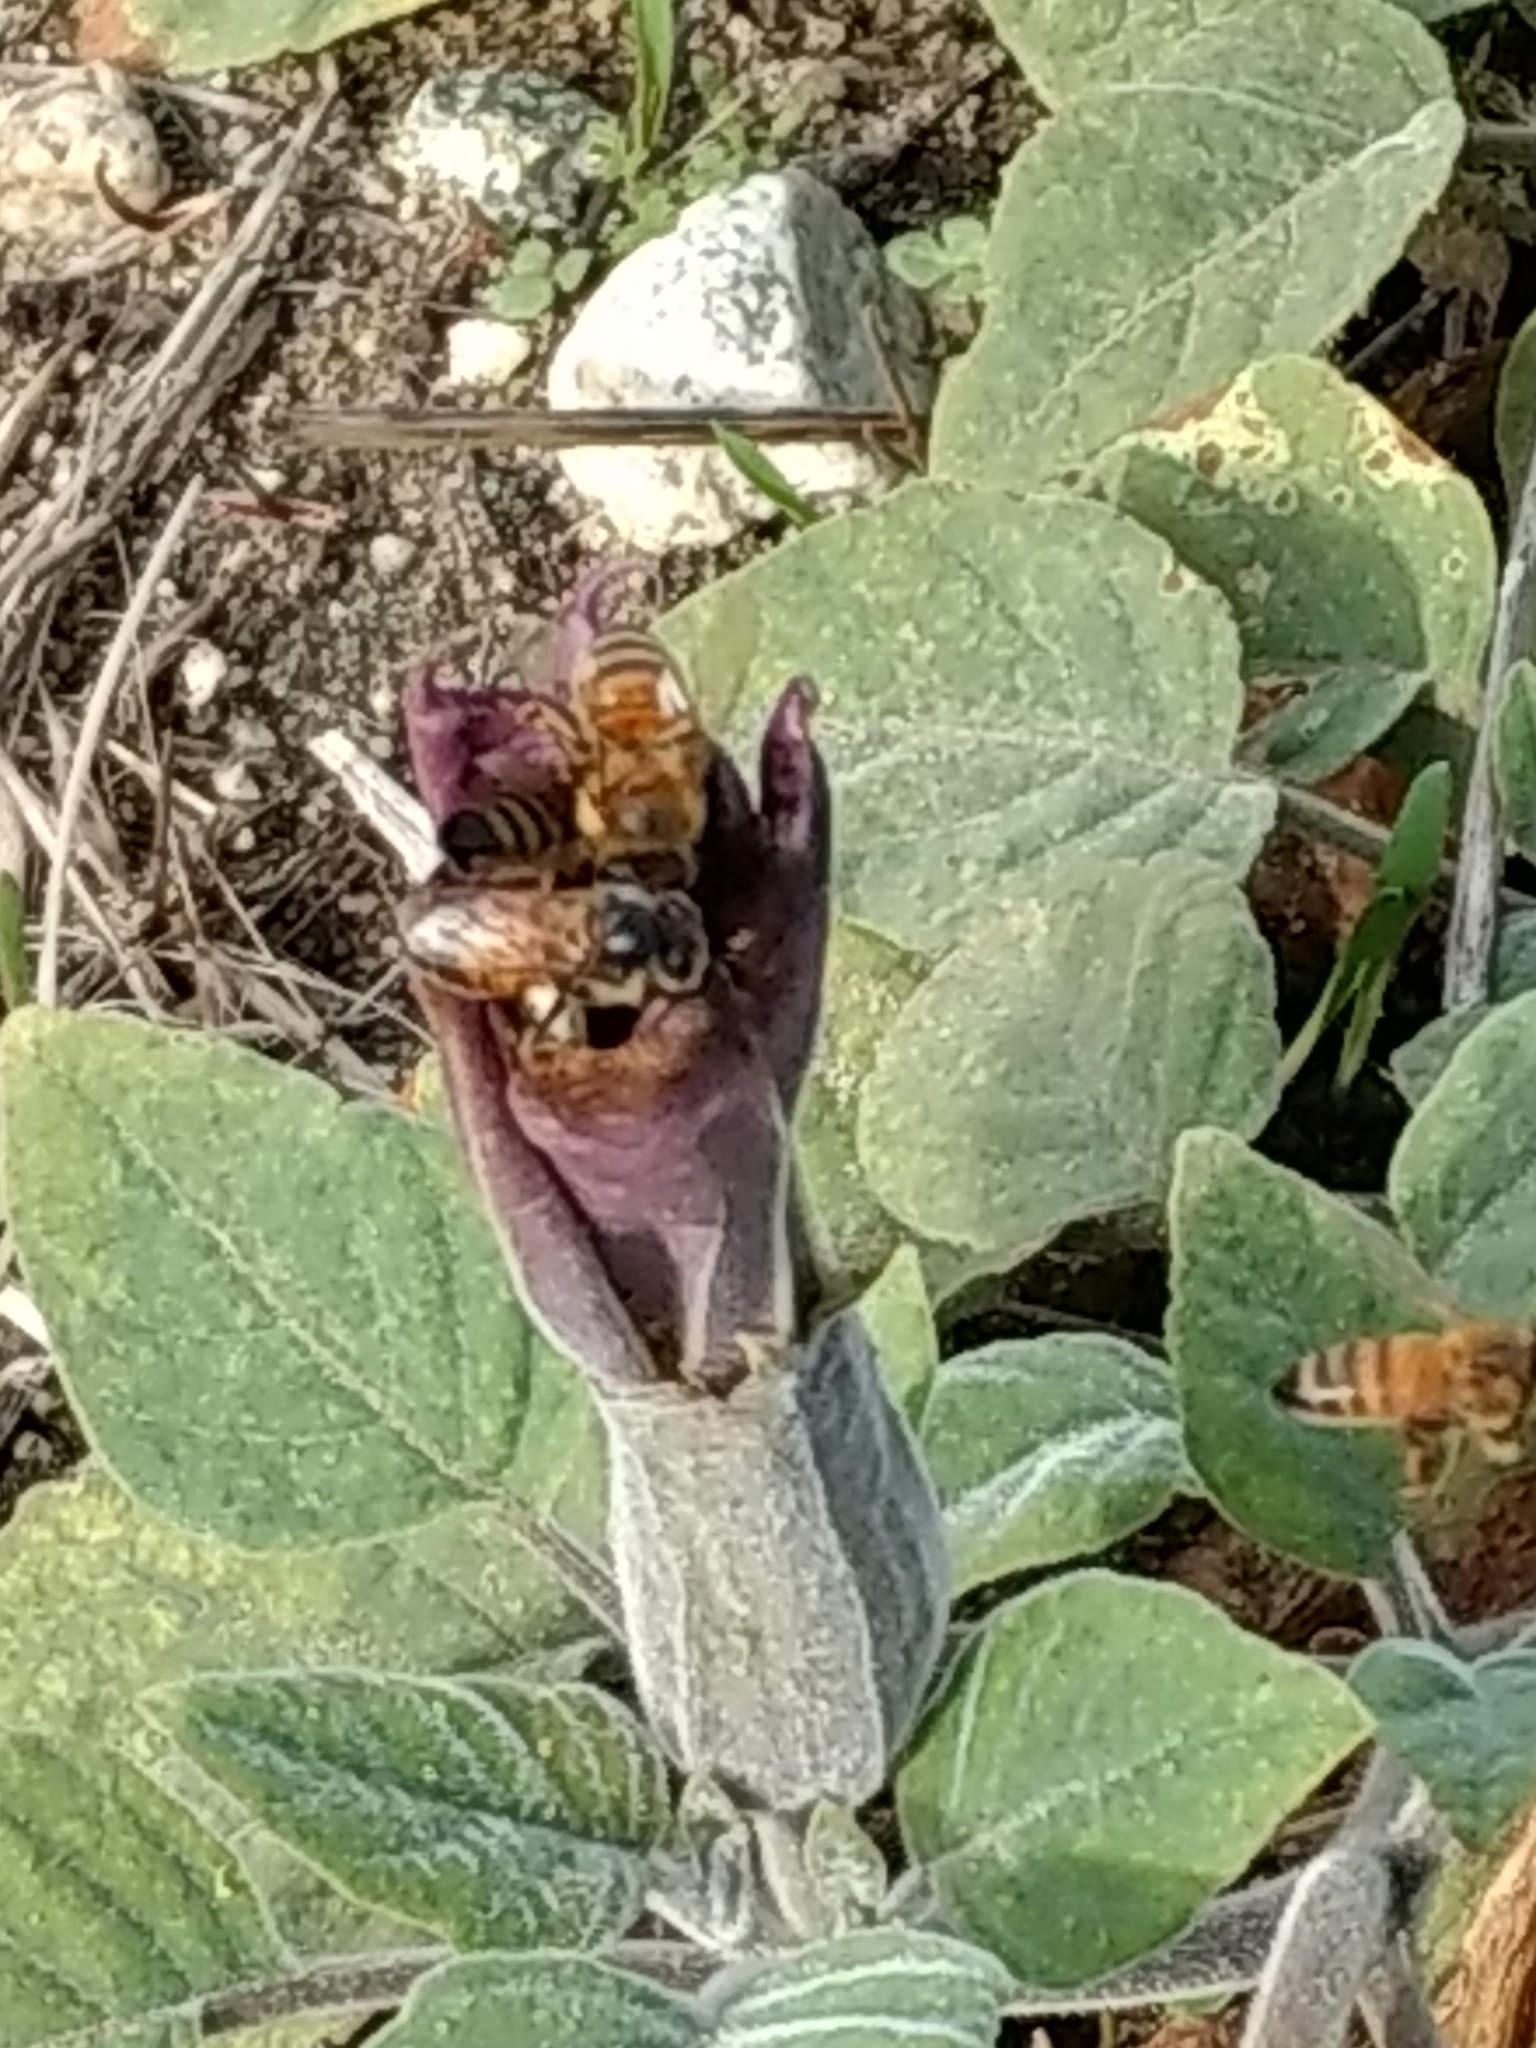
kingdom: Animalia
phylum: Arthropoda
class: Insecta
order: Hymenoptera
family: Apidae
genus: Apis
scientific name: Apis mellifera
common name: Honey bee
